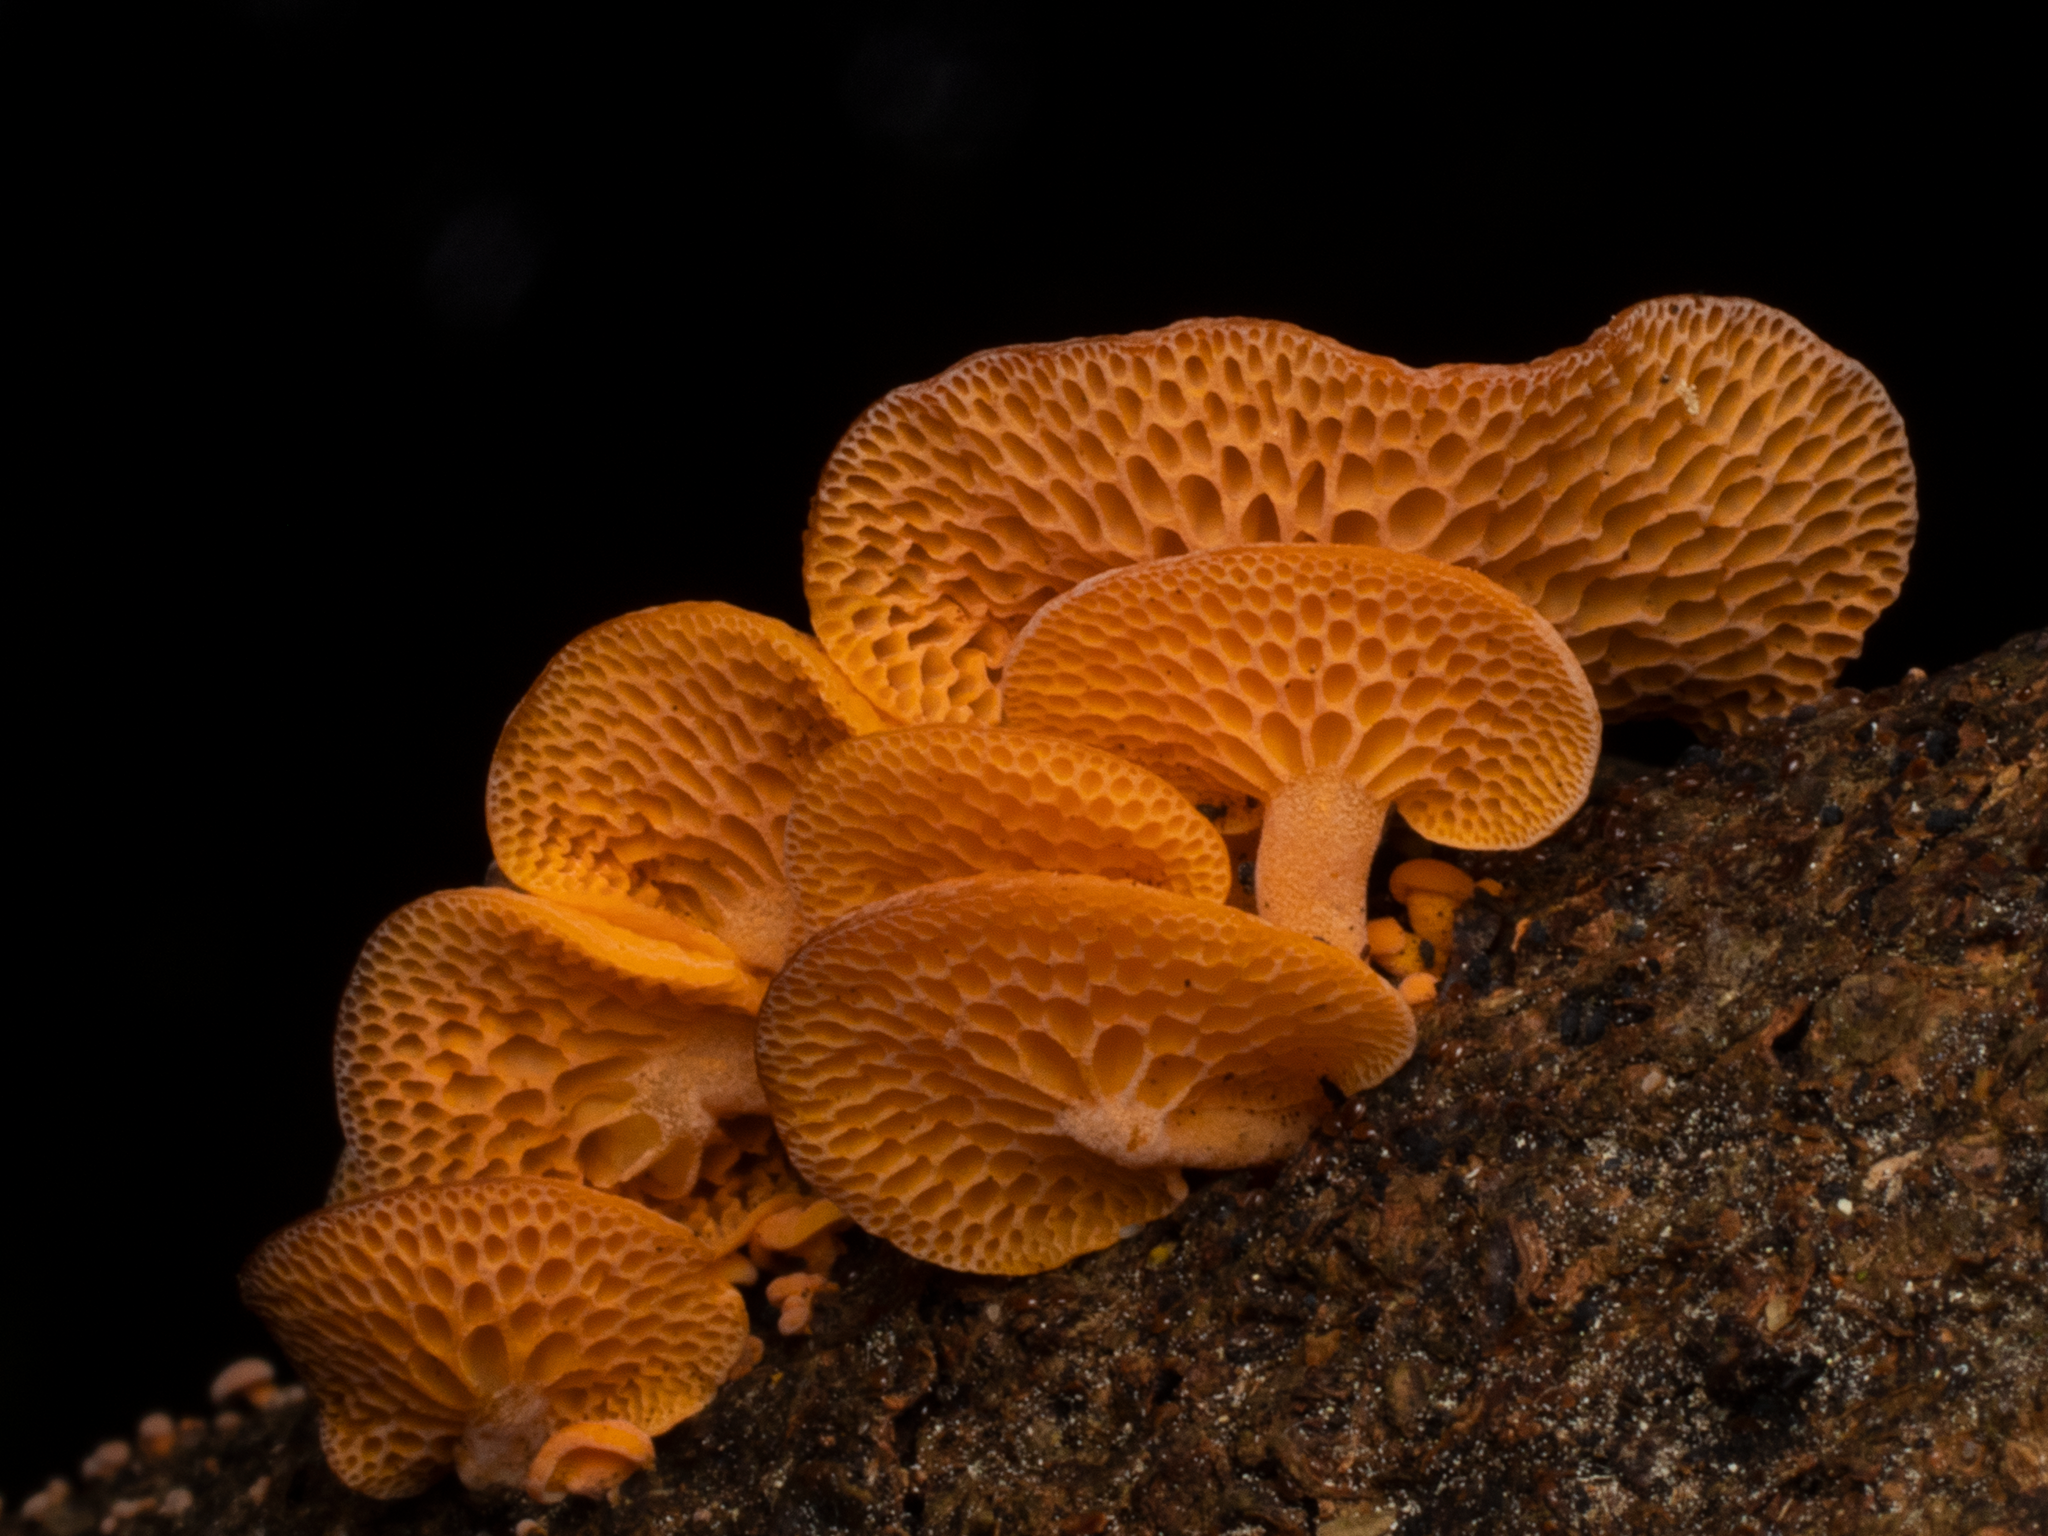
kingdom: Fungi
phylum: Basidiomycota
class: Agaricomycetes
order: Agaricales
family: Mycenaceae
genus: Favolaschia
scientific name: Favolaschia claudopus
